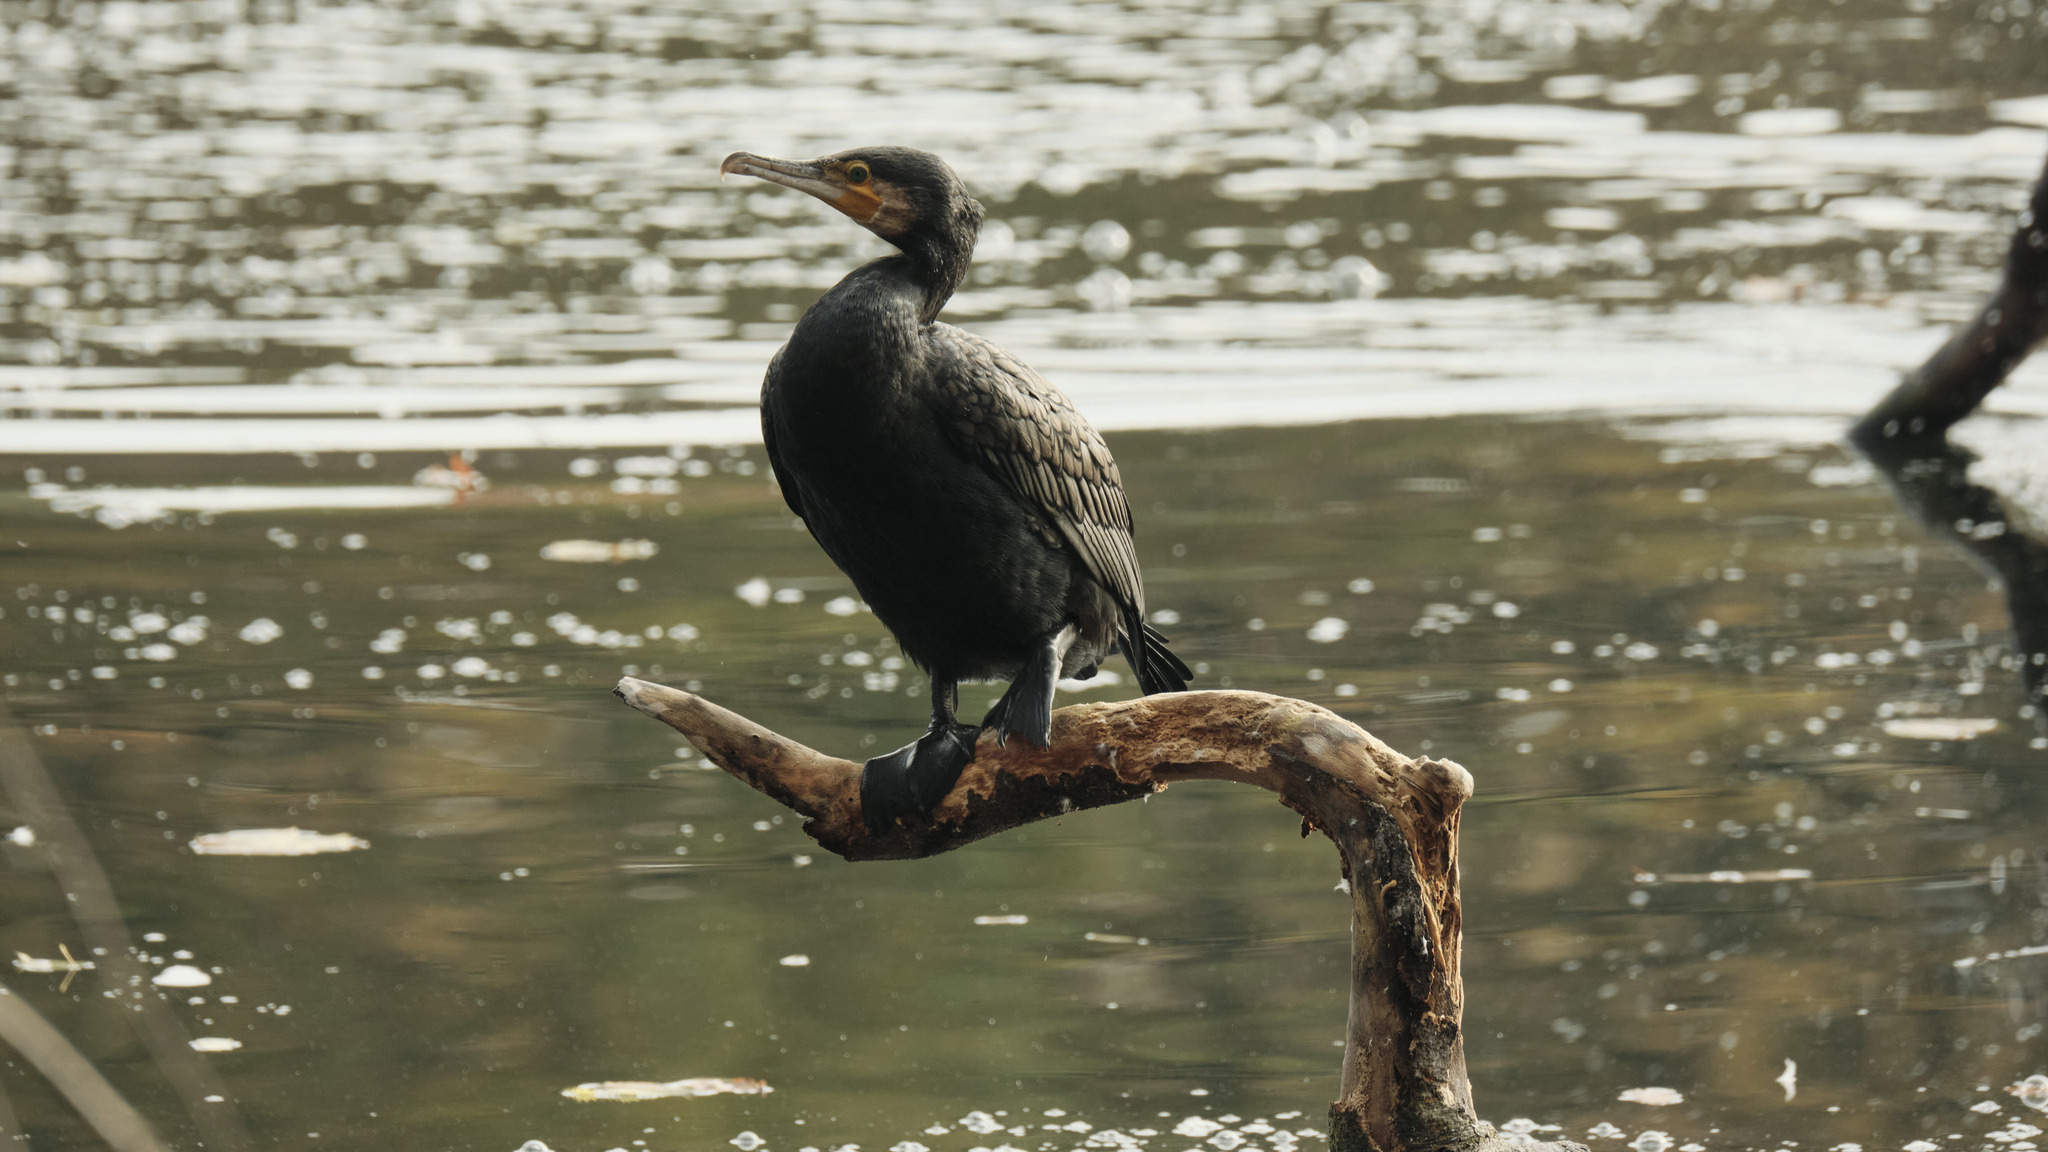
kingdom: Animalia
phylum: Chordata
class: Aves
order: Suliformes
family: Phalacrocoracidae
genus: Phalacrocorax
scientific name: Phalacrocorax carbo
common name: Great cormorant
